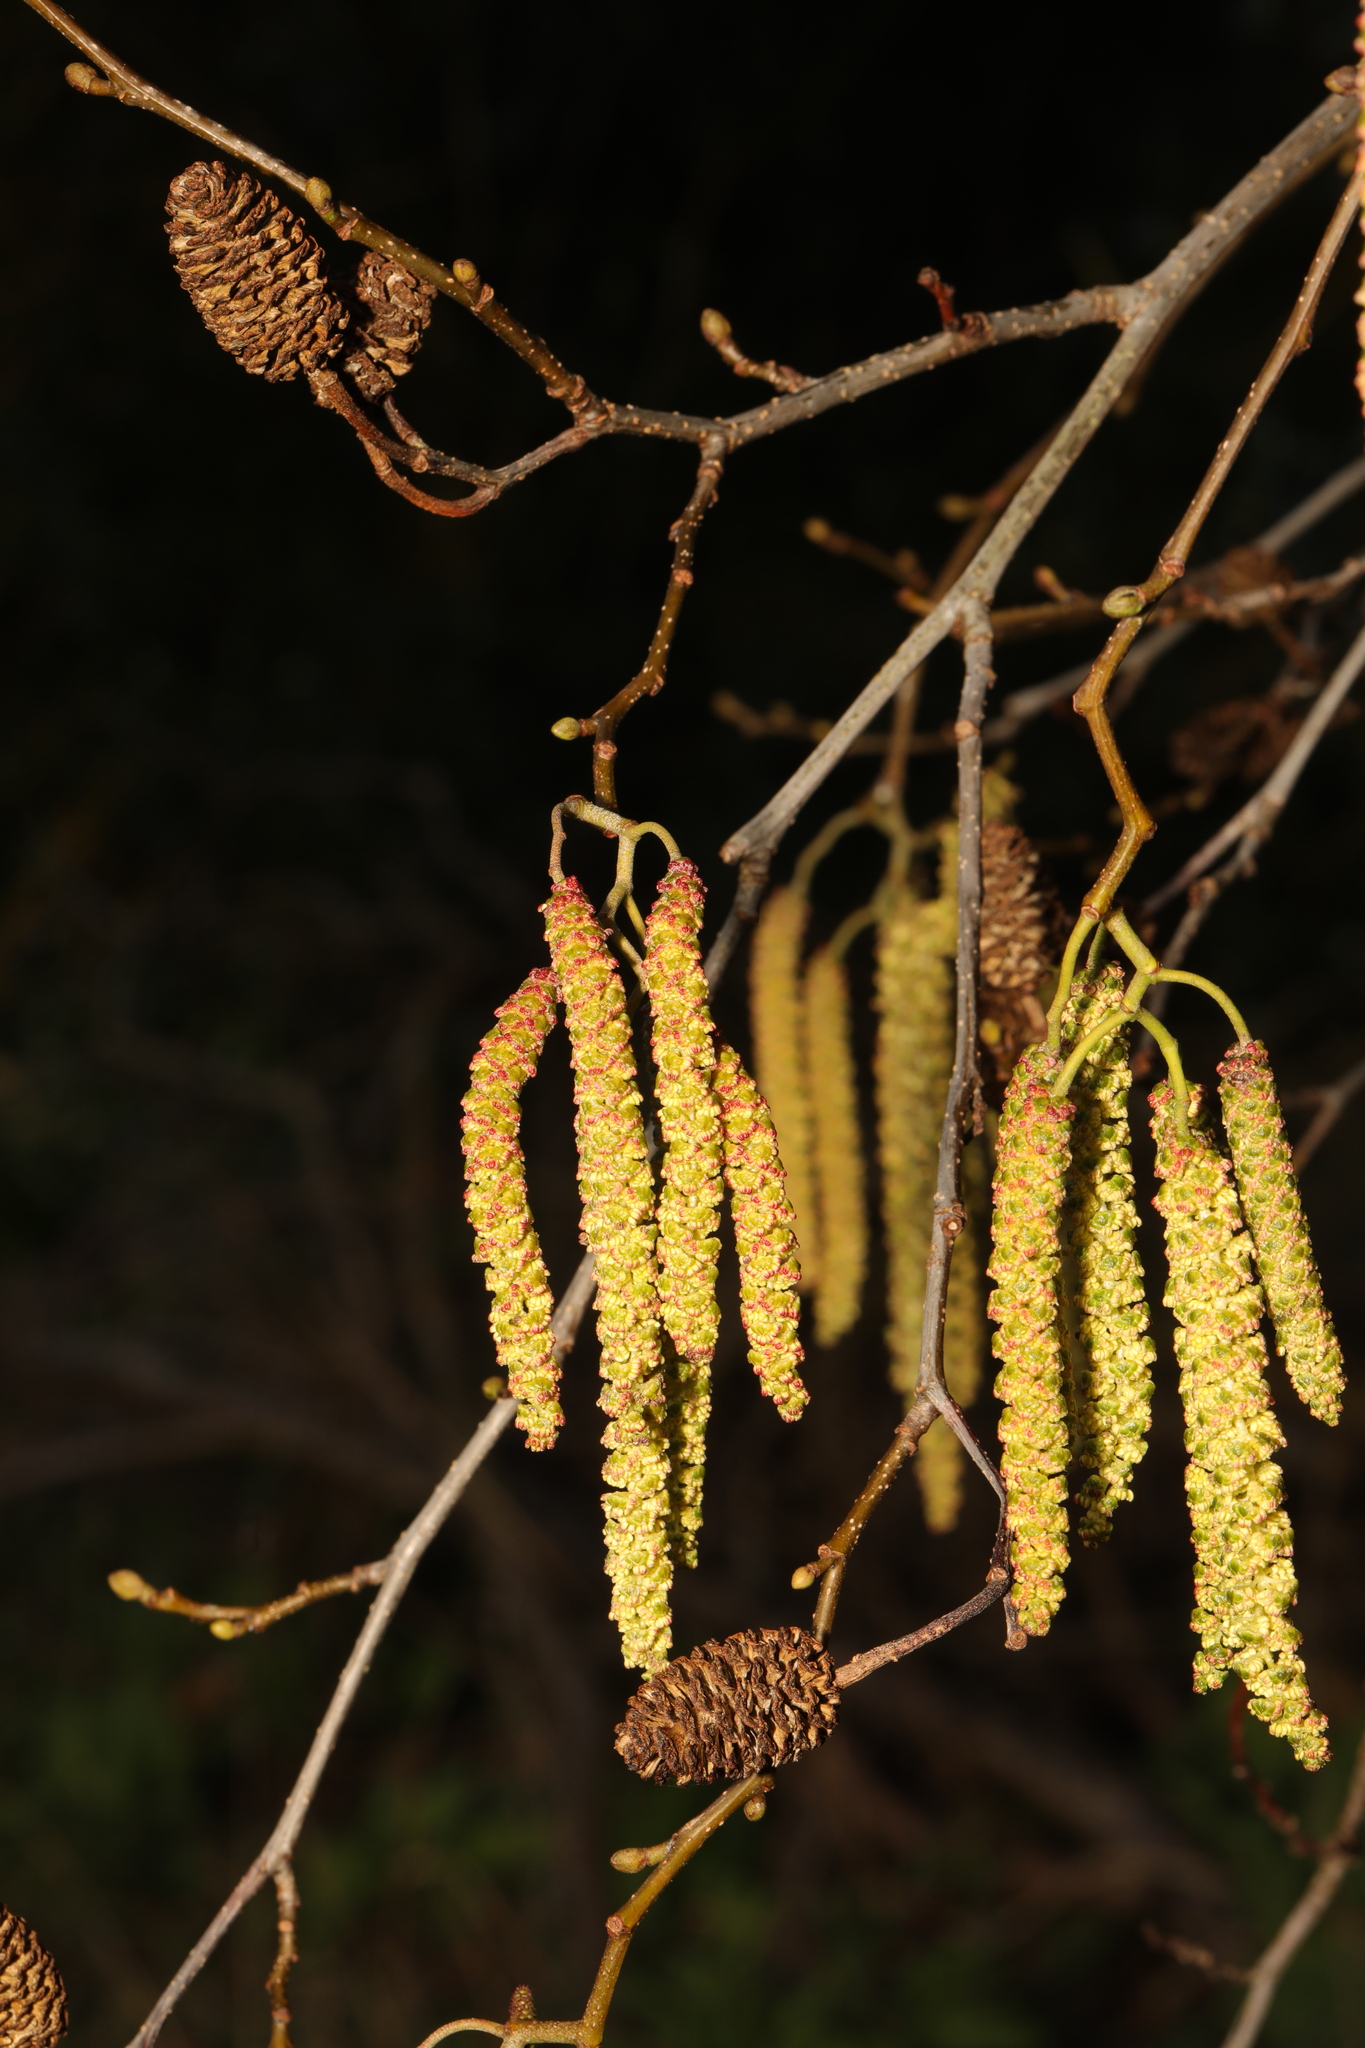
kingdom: Plantae
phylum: Tracheophyta
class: Magnoliopsida
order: Fagales
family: Betulaceae
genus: Alnus
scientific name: Alnus glutinosa
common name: Black alder
